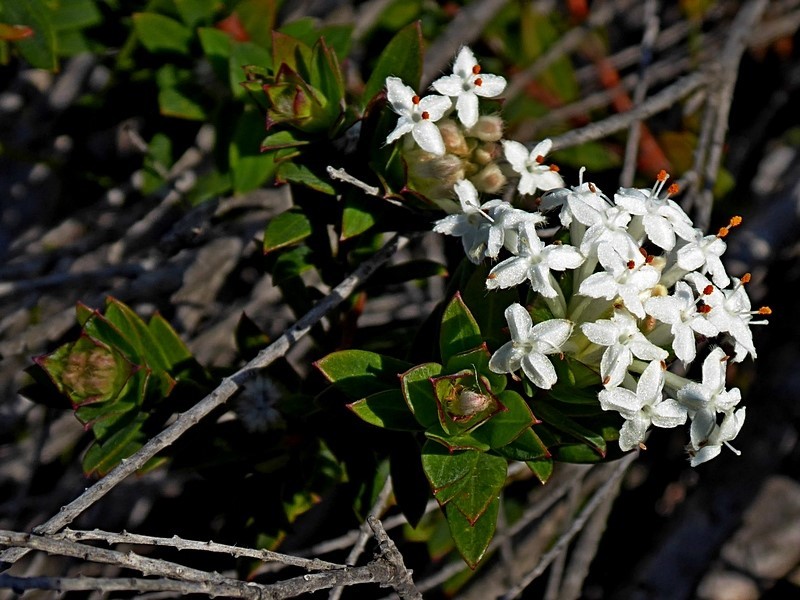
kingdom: Plantae
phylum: Tracheophyta
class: Magnoliopsida
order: Malvales
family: Thymelaeaceae
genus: Pimelea
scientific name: Pimelea linifolia
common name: Queen-of-the-bush
